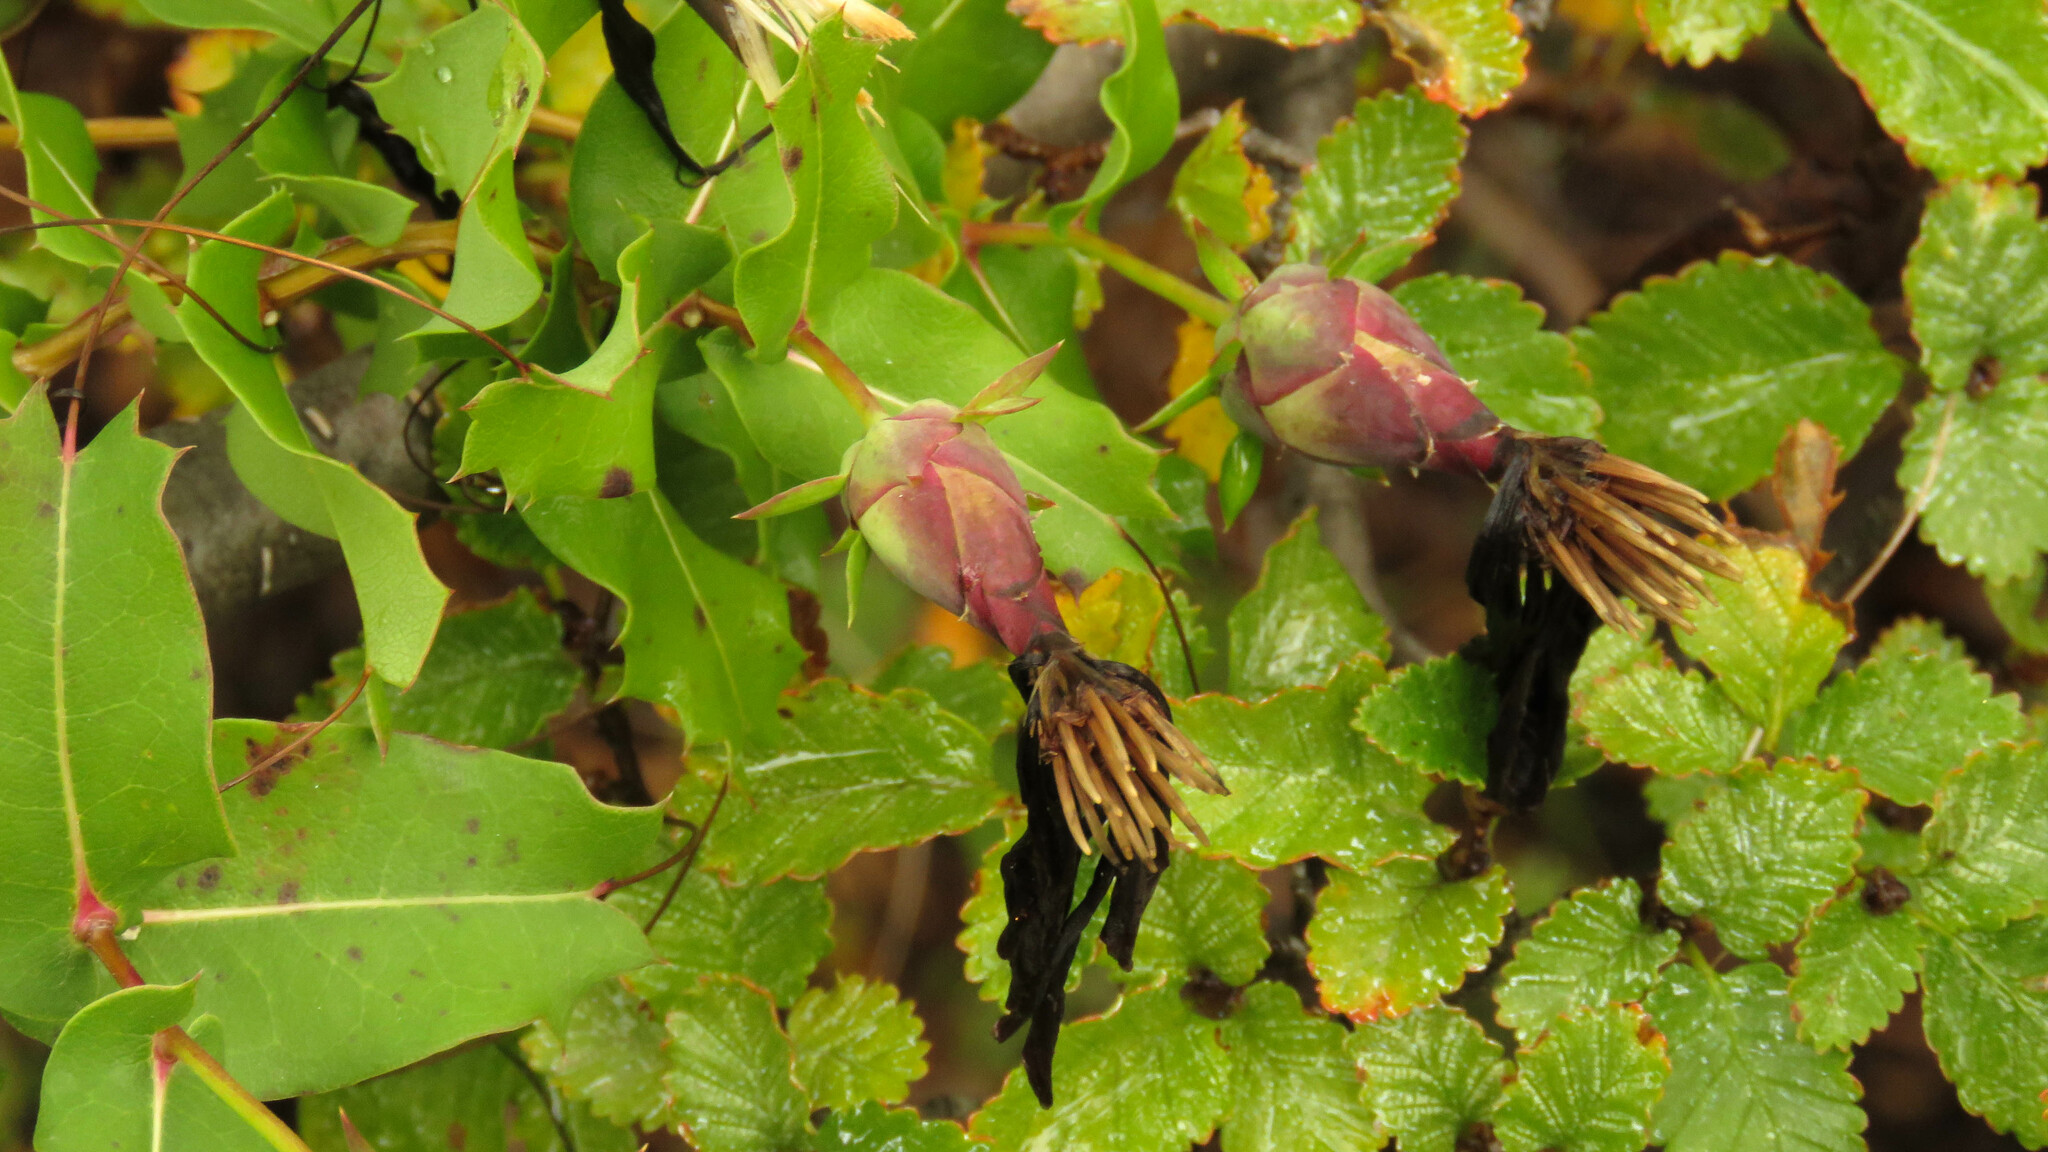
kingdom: Plantae
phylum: Tracheophyta
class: Magnoliopsida
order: Asterales
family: Asteraceae
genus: Mutisia
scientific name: Mutisia spinosa
